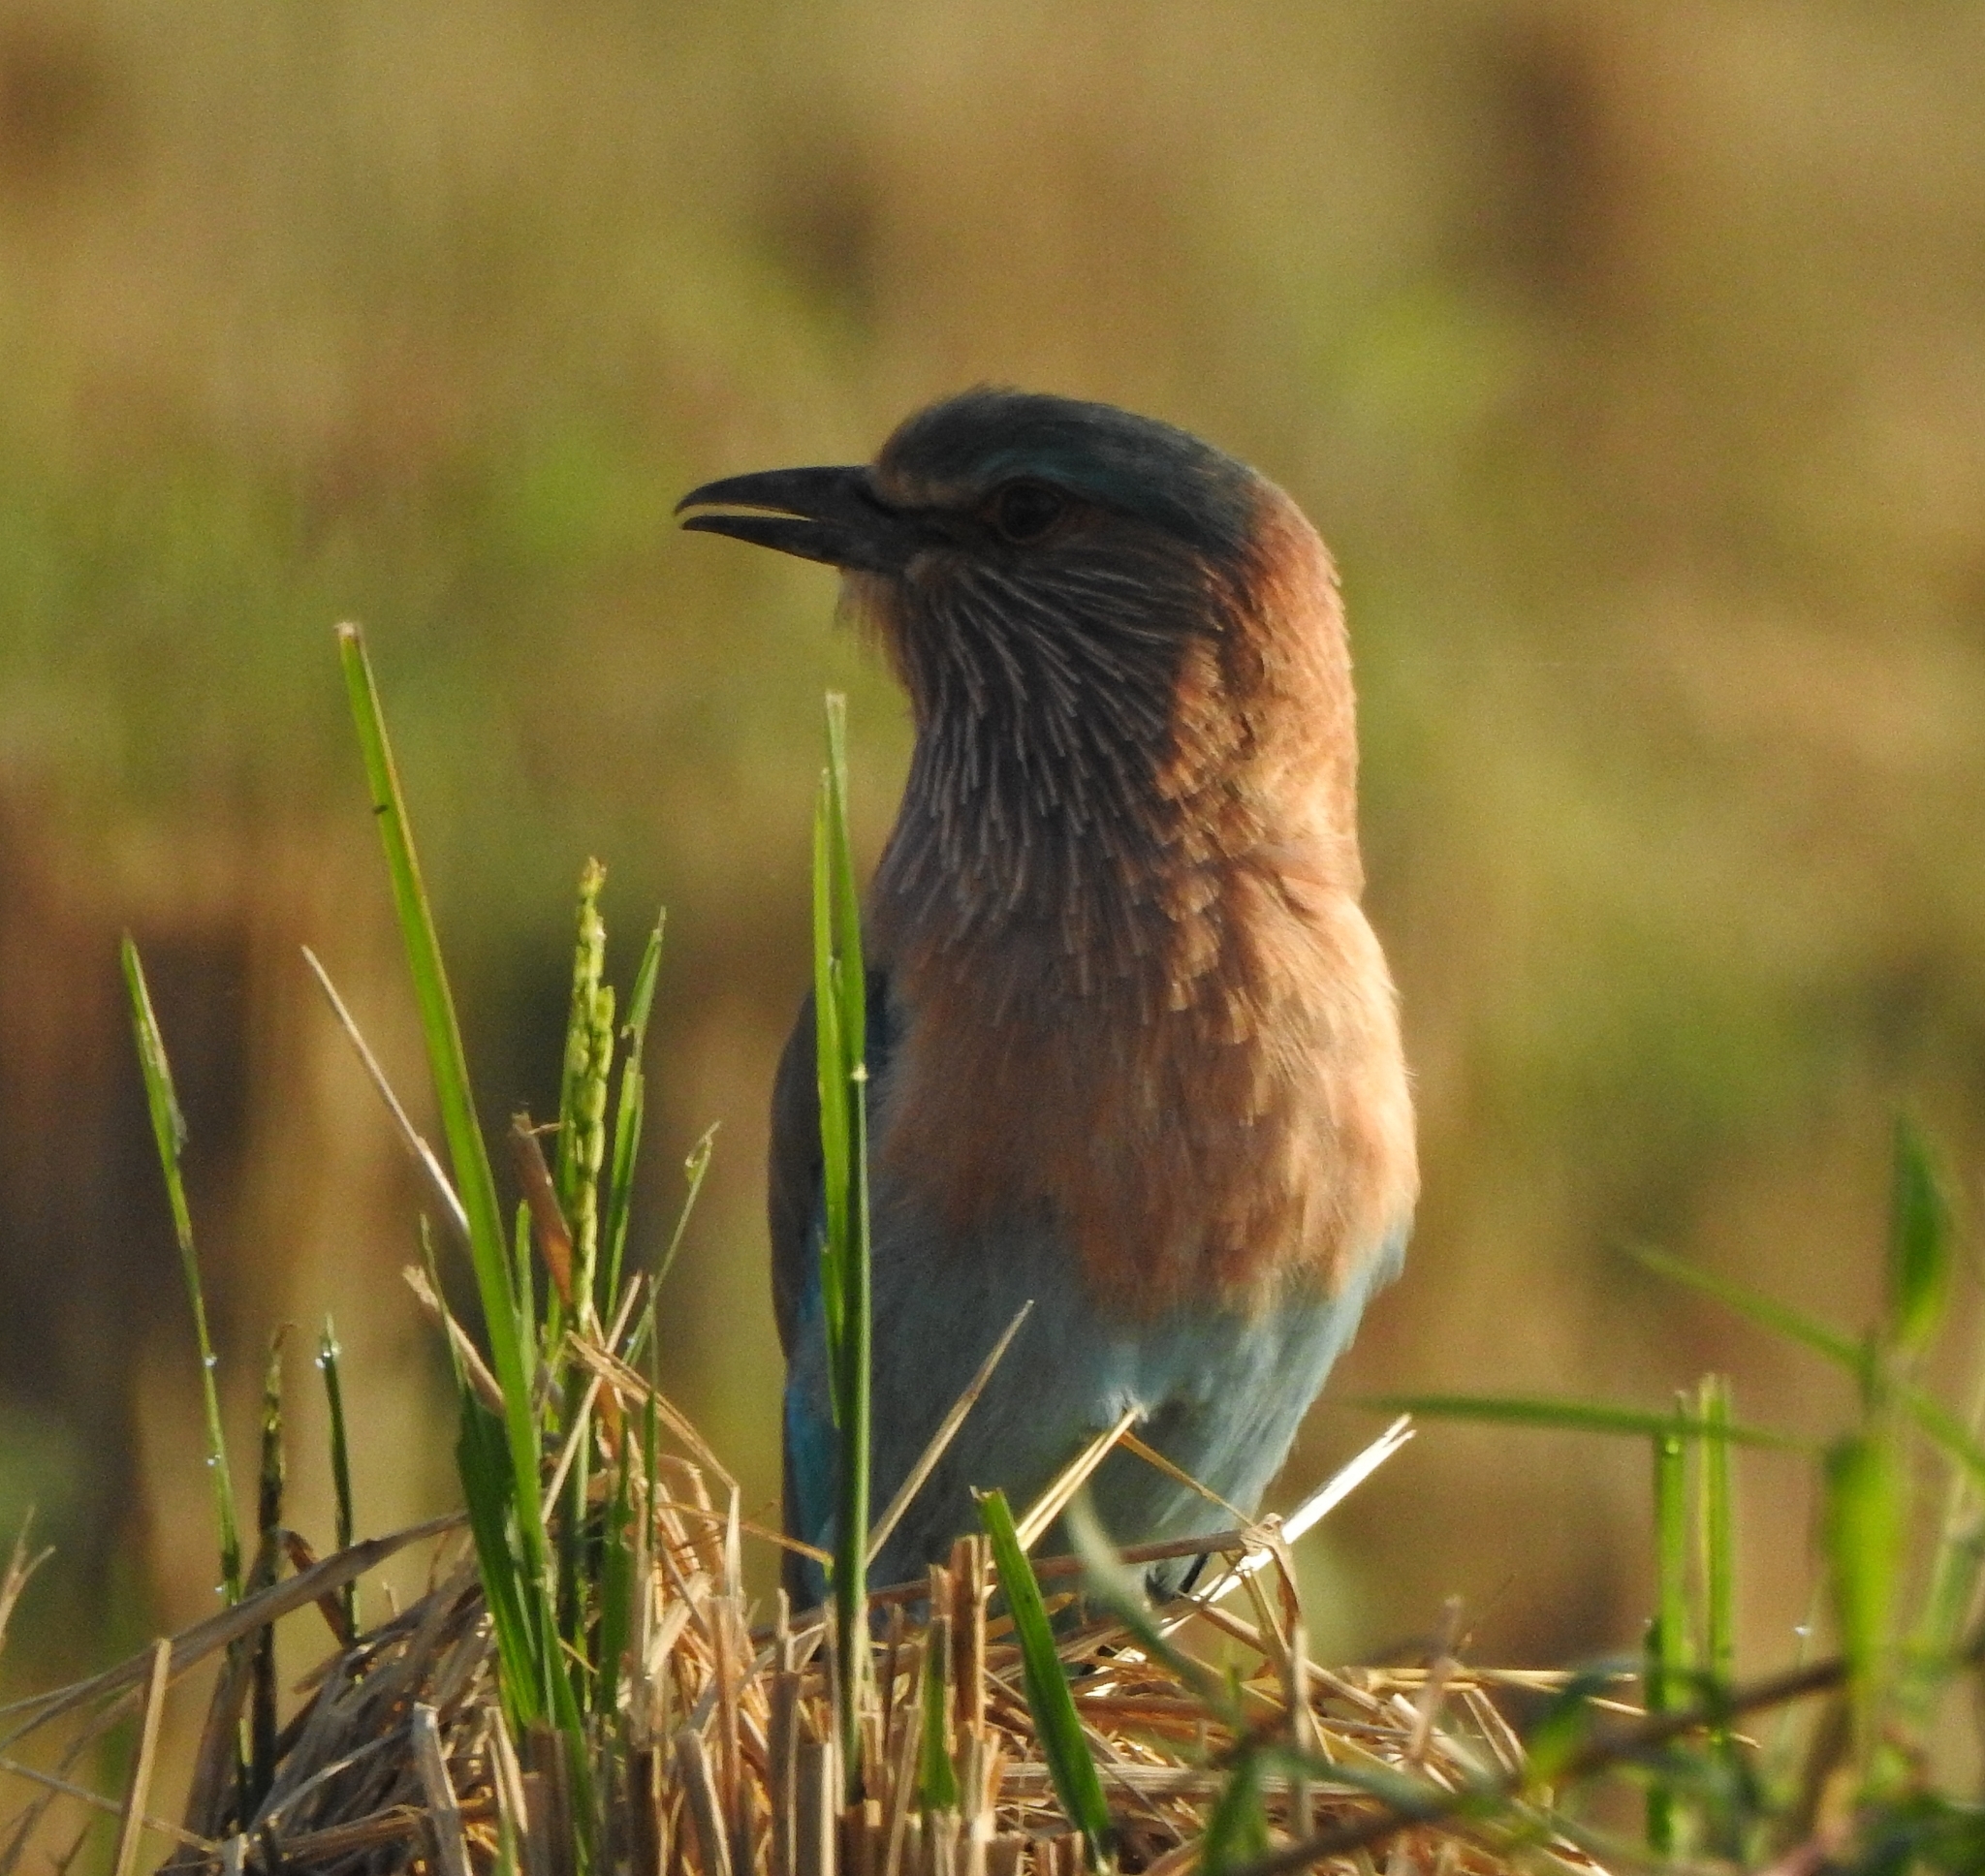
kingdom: Animalia
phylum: Chordata
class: Aves
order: Coraciiformes
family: Coraciidae
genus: Coracias
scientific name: Coracias benghalensis
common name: Indian roller
